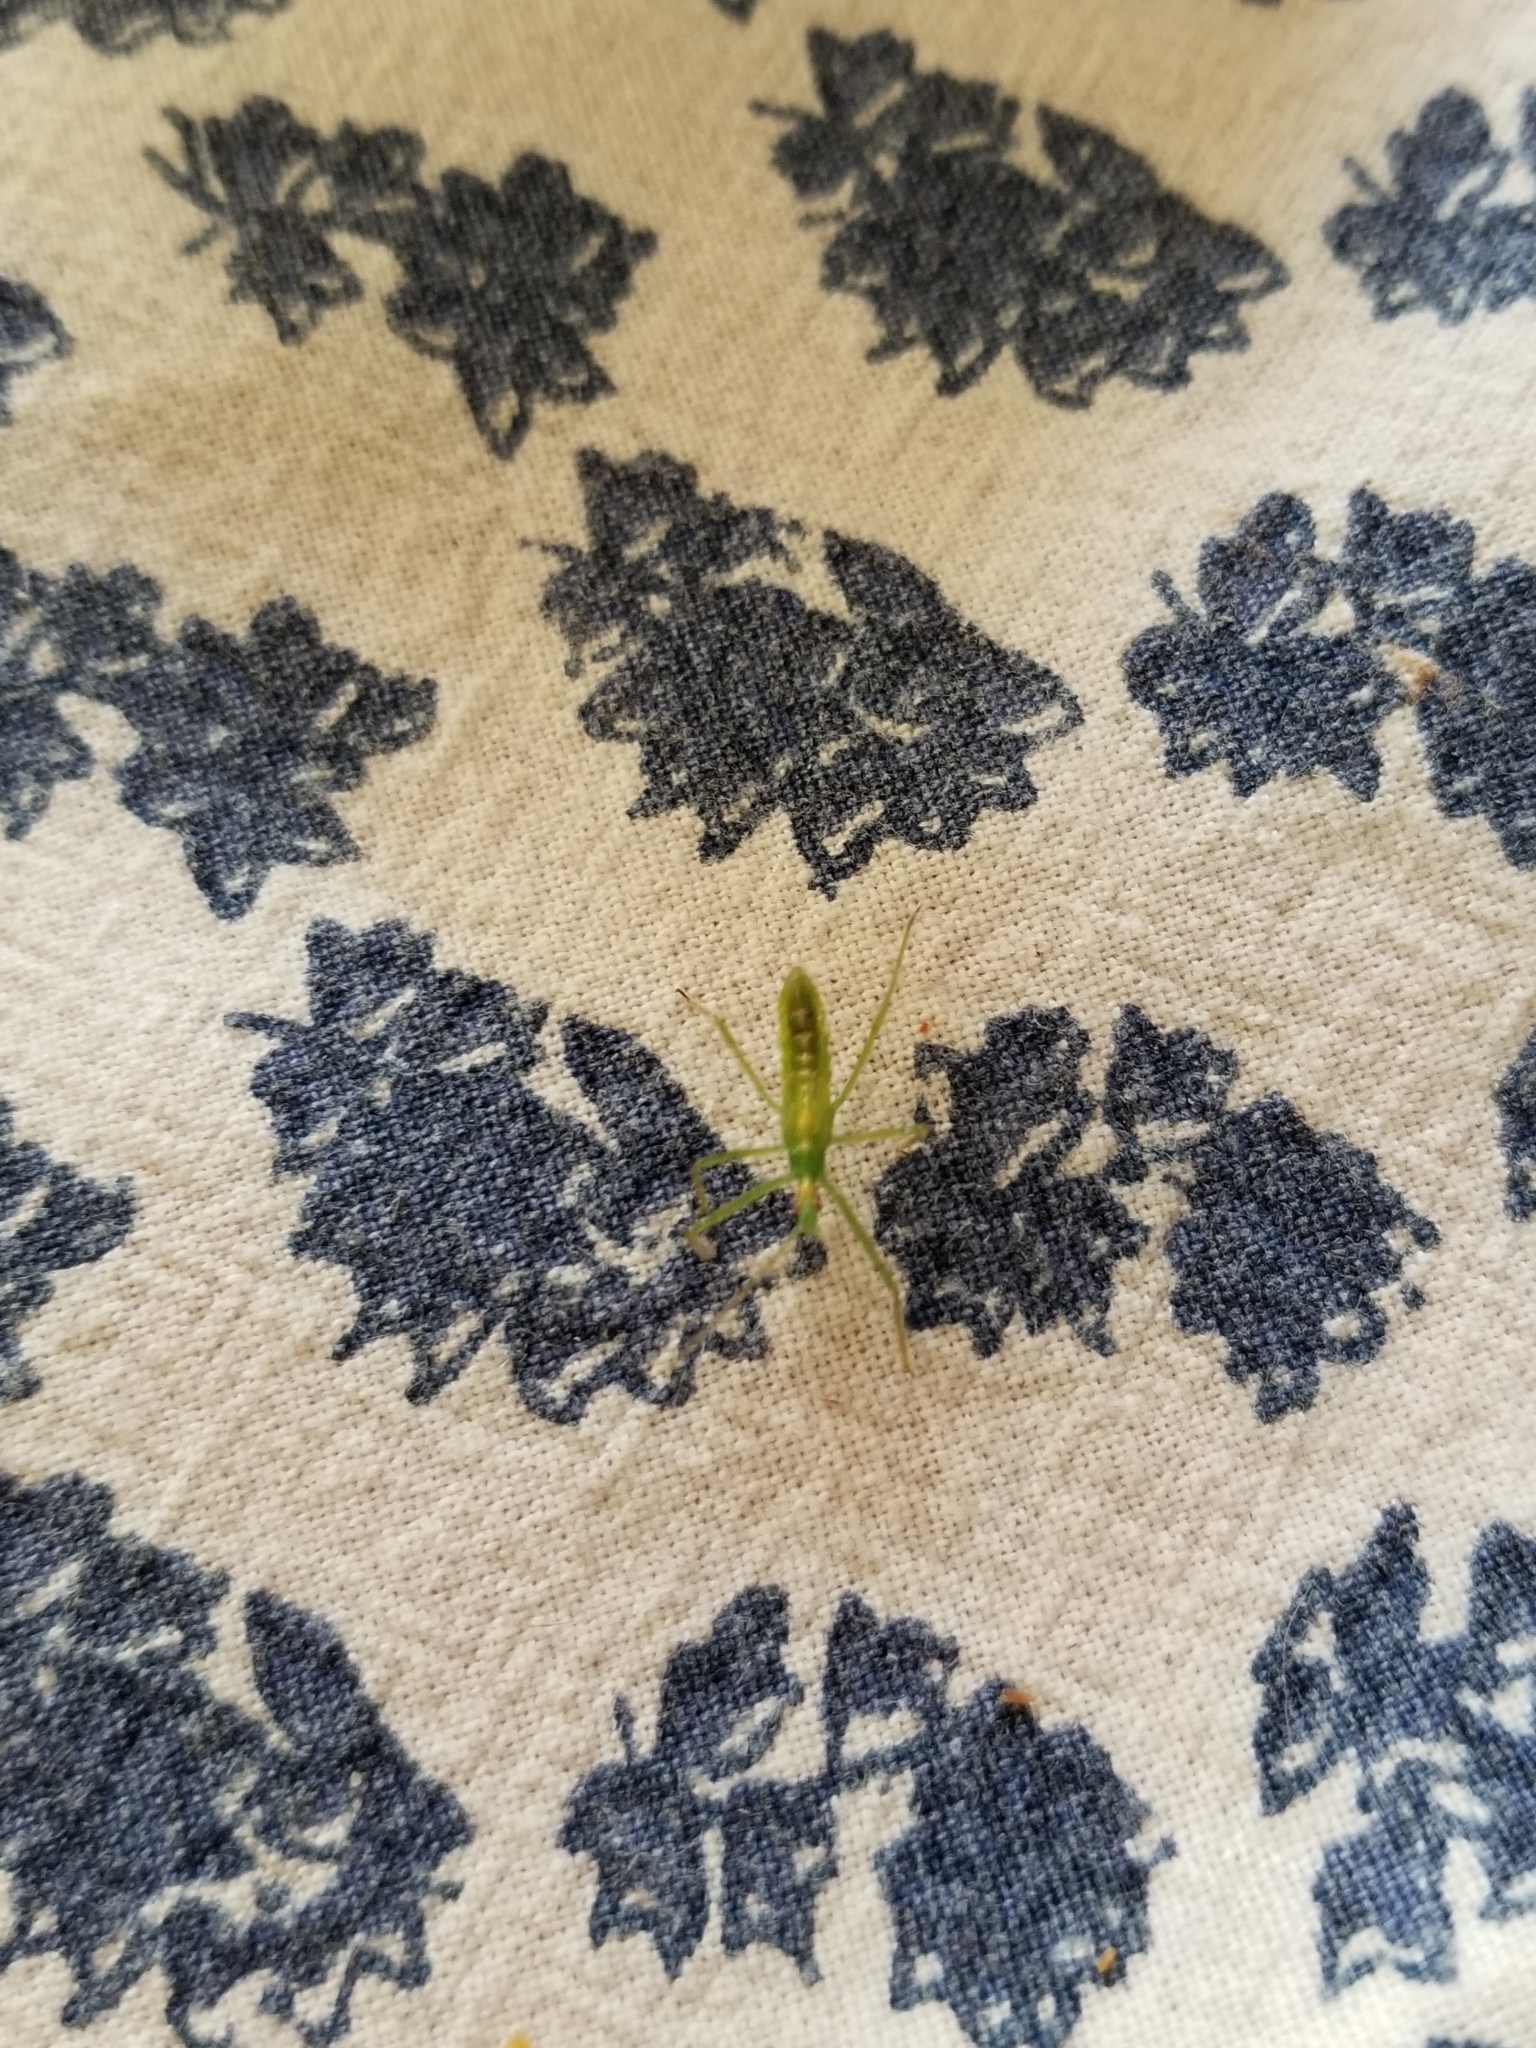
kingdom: Animalia
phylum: Arthropoda
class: Insecta
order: Hemiptera
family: Reduviidae
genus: Zelus
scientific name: Zelus luridus
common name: Pale green assassin bug
